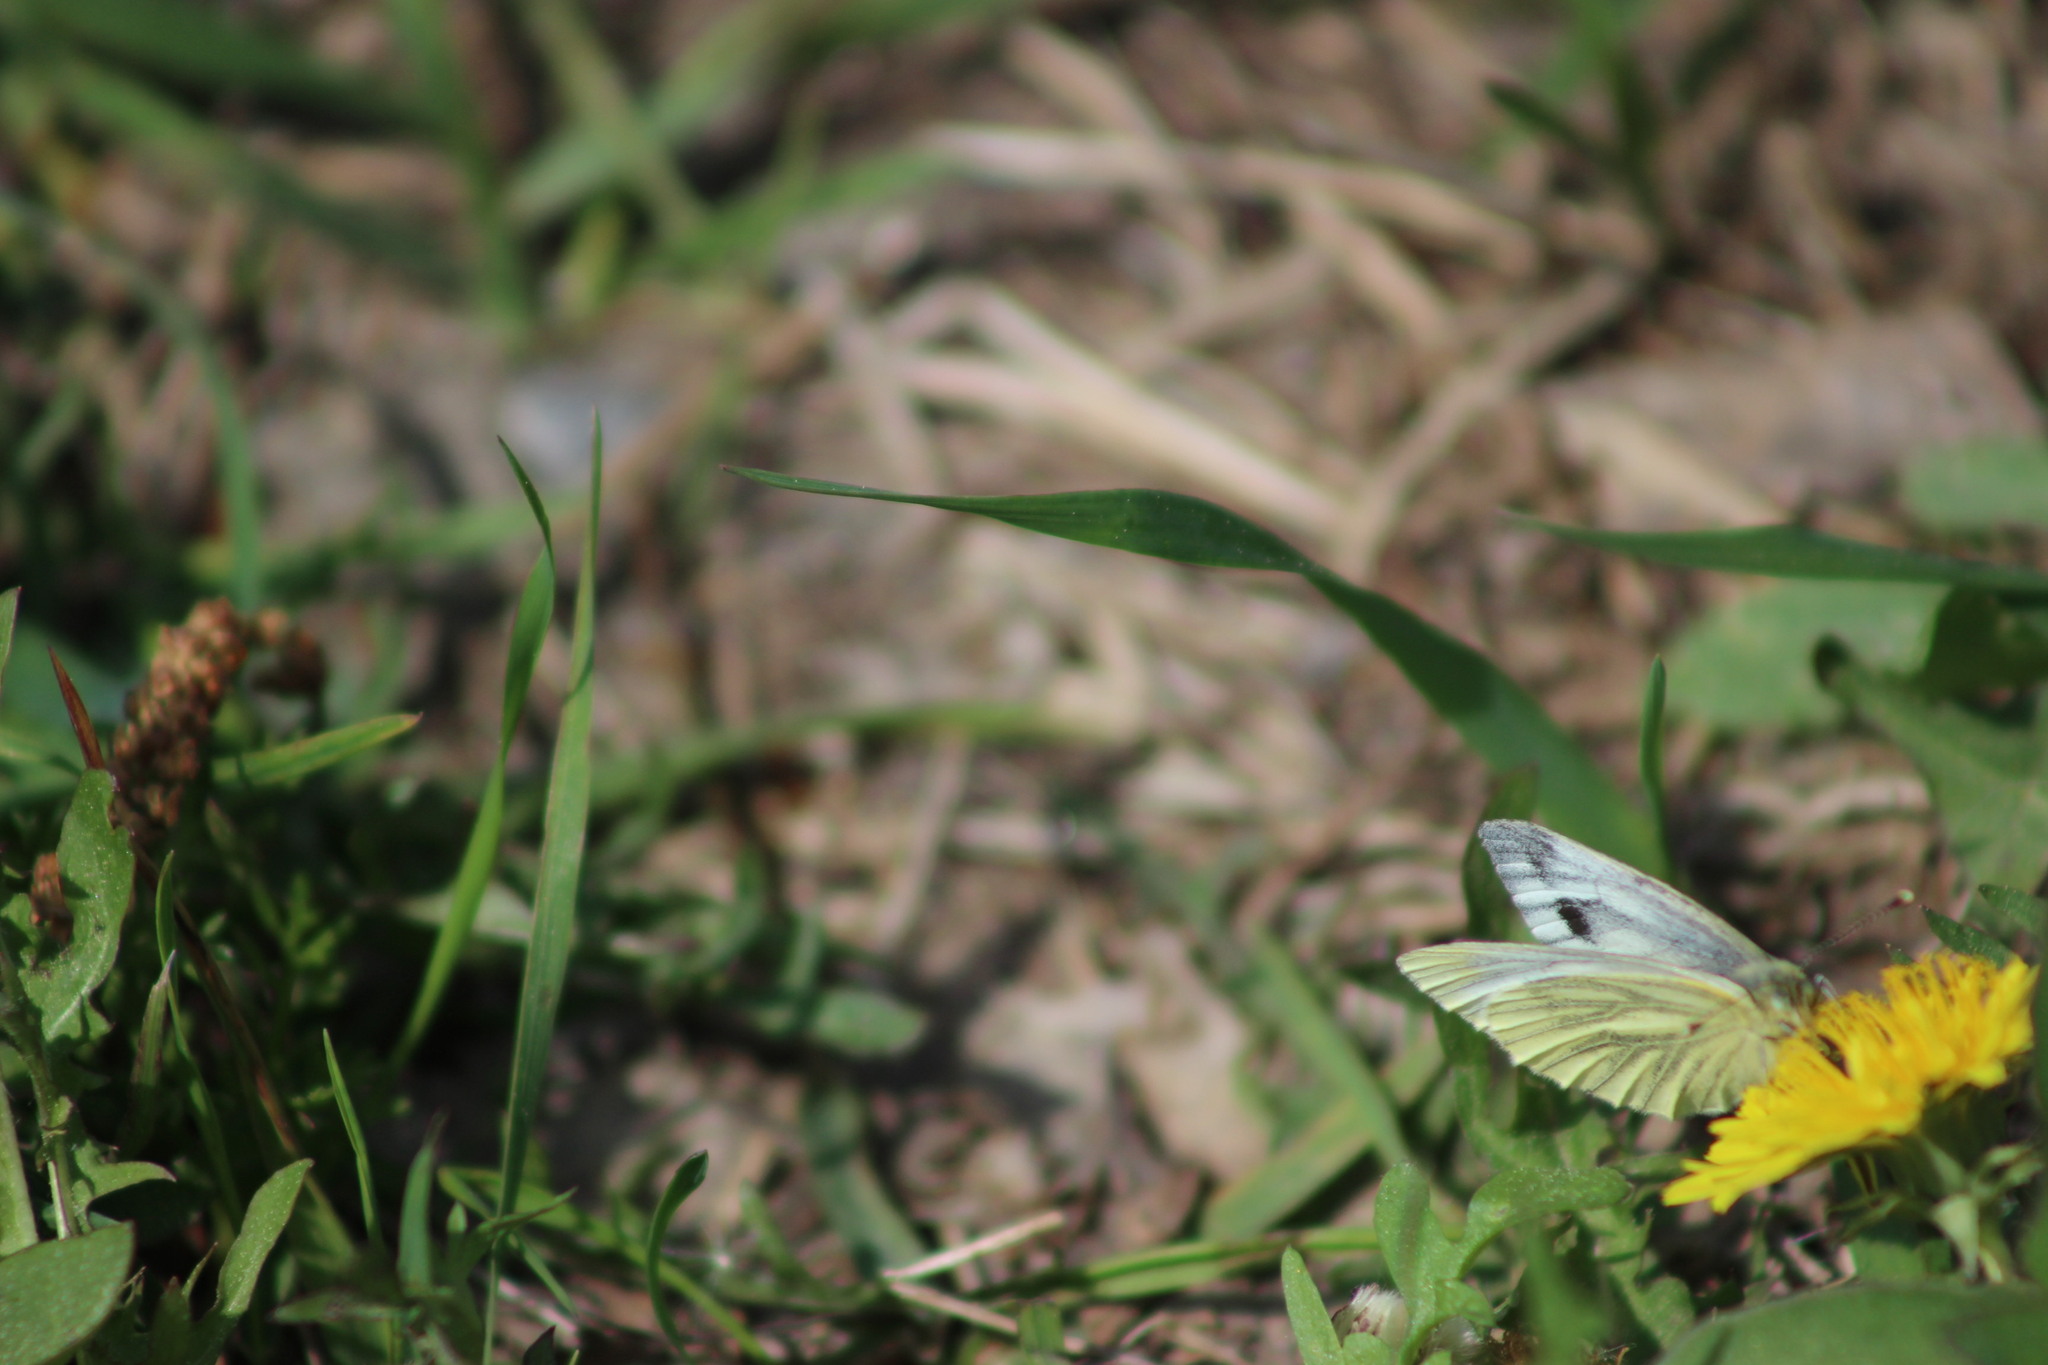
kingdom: Animalia
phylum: Arthropoda
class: Insecta
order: Lepidoptera
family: Pieridae
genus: Pieris
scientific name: Pieris napi
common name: Green-veined white
